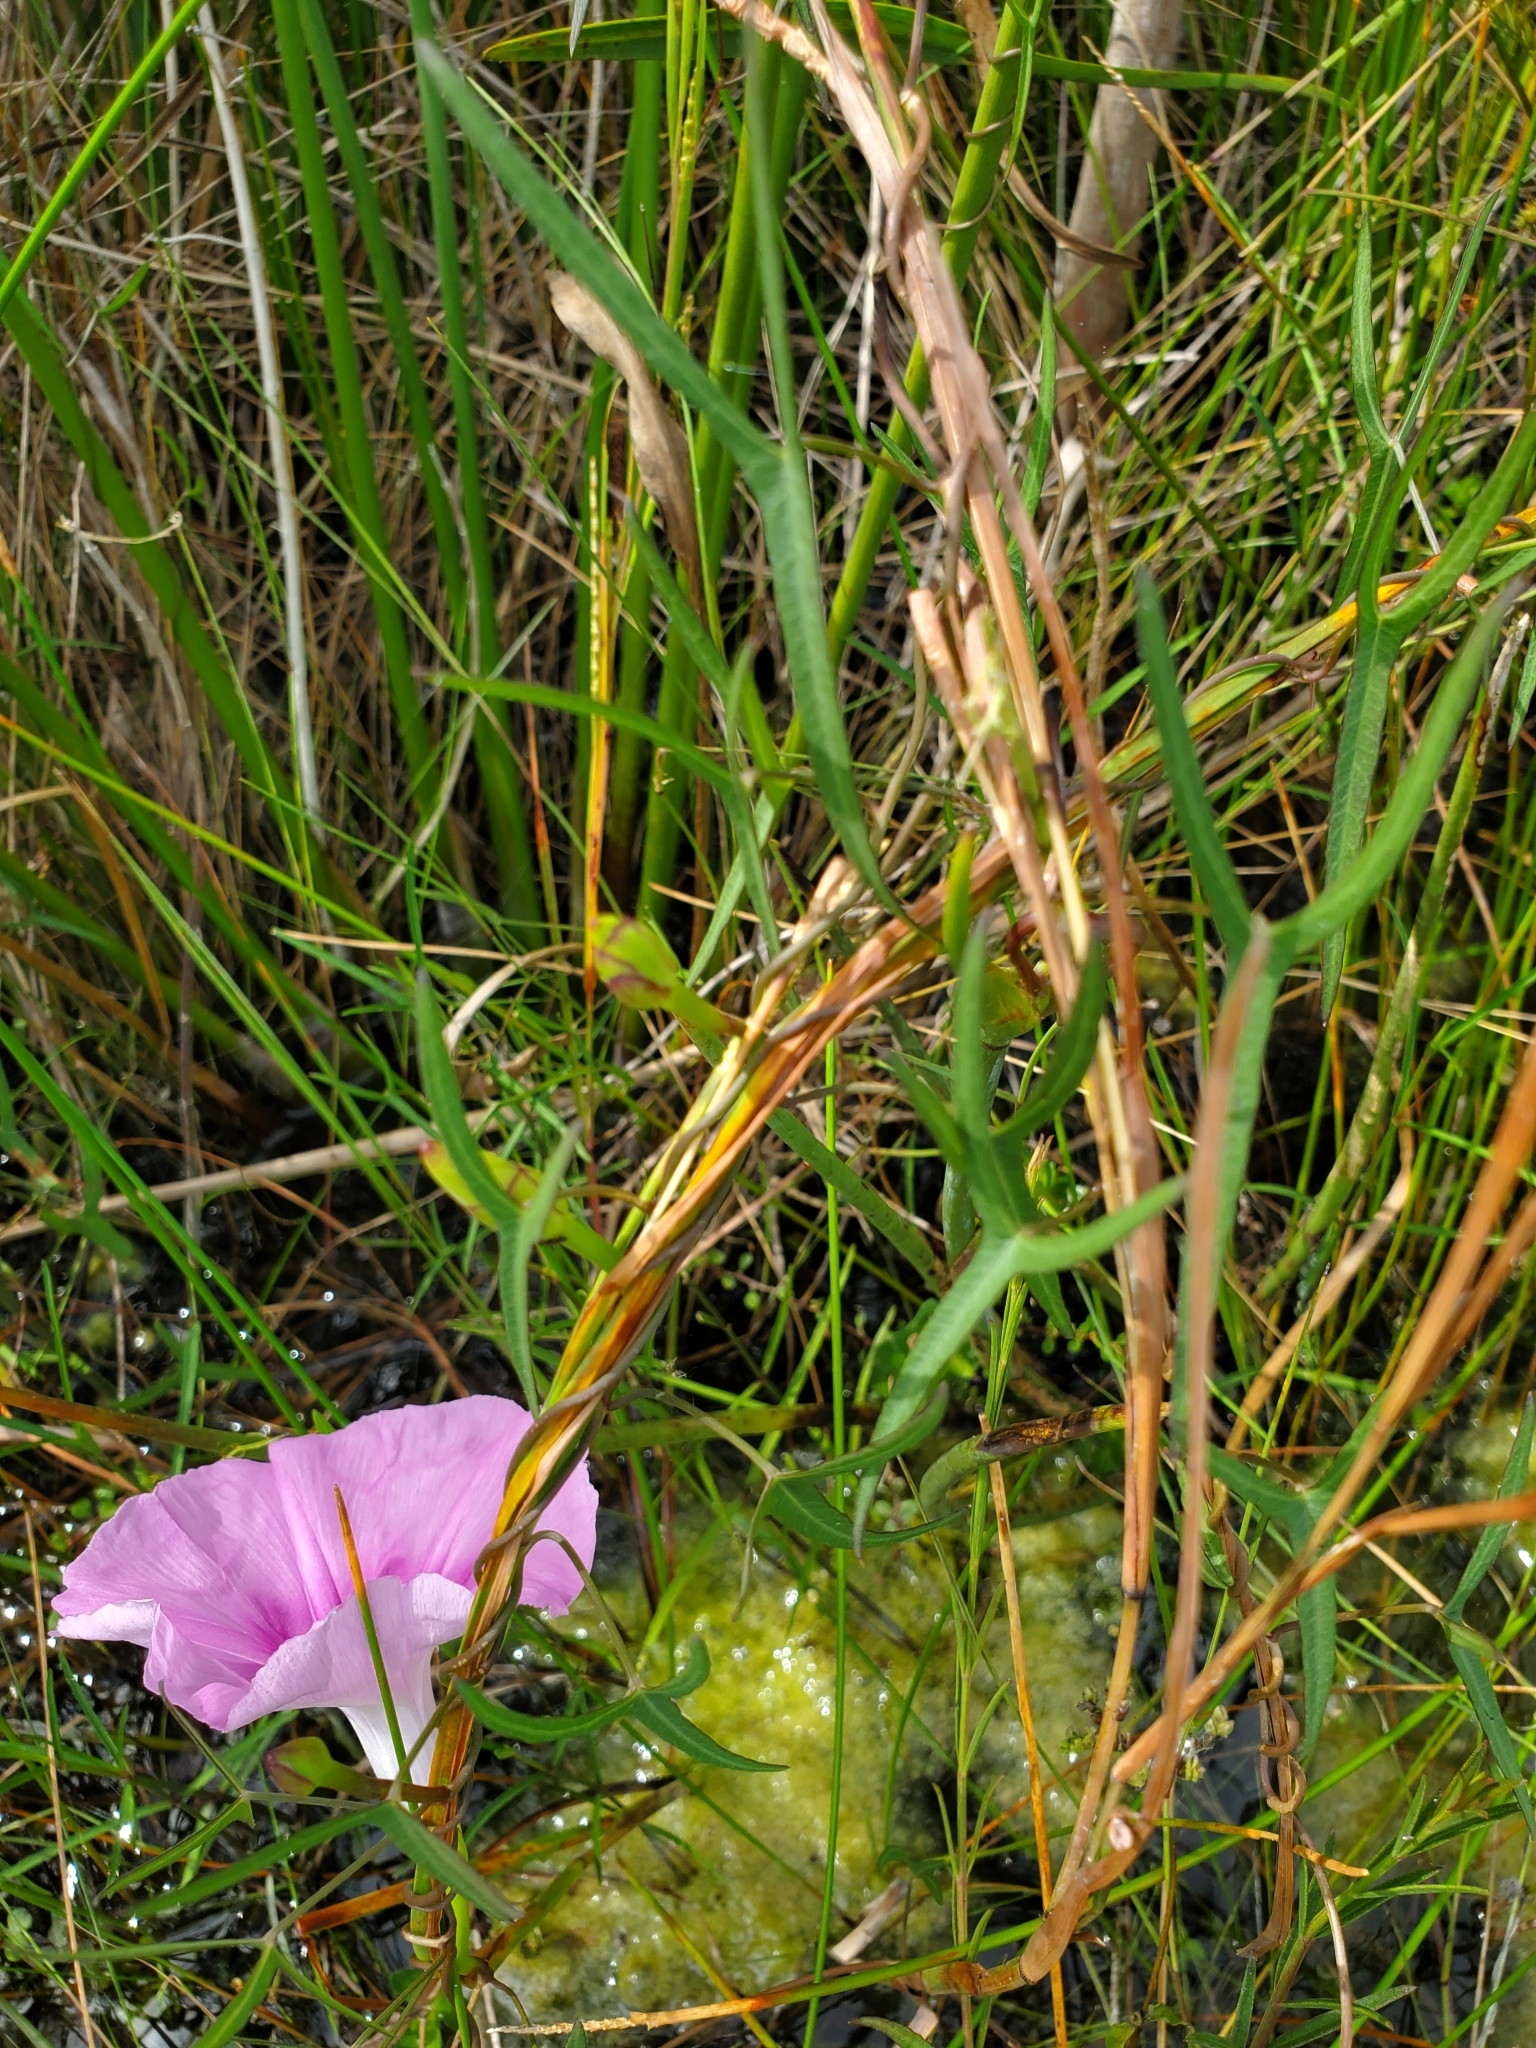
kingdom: Plantae
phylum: Tracheophyta
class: Magnoliopsida
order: Solanales
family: Convolvulaceae
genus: Ipomoea
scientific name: Ipomoea sagittata
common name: Saltmarsh morning glory
